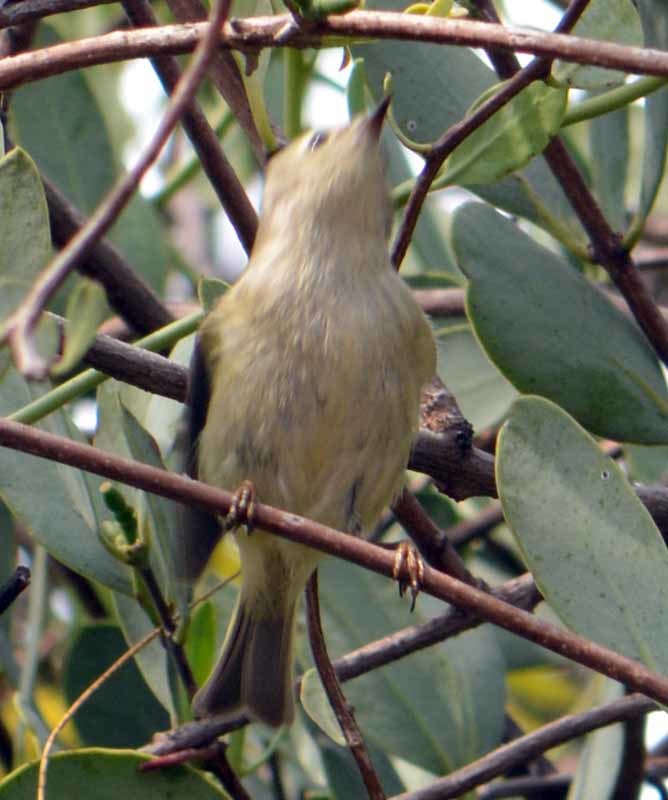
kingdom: Animalia
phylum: Chordata
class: Aves
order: Passeriformes
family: Regulidae
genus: Regulus
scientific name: Regulus calendula
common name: Ruby-crowned kinglet
